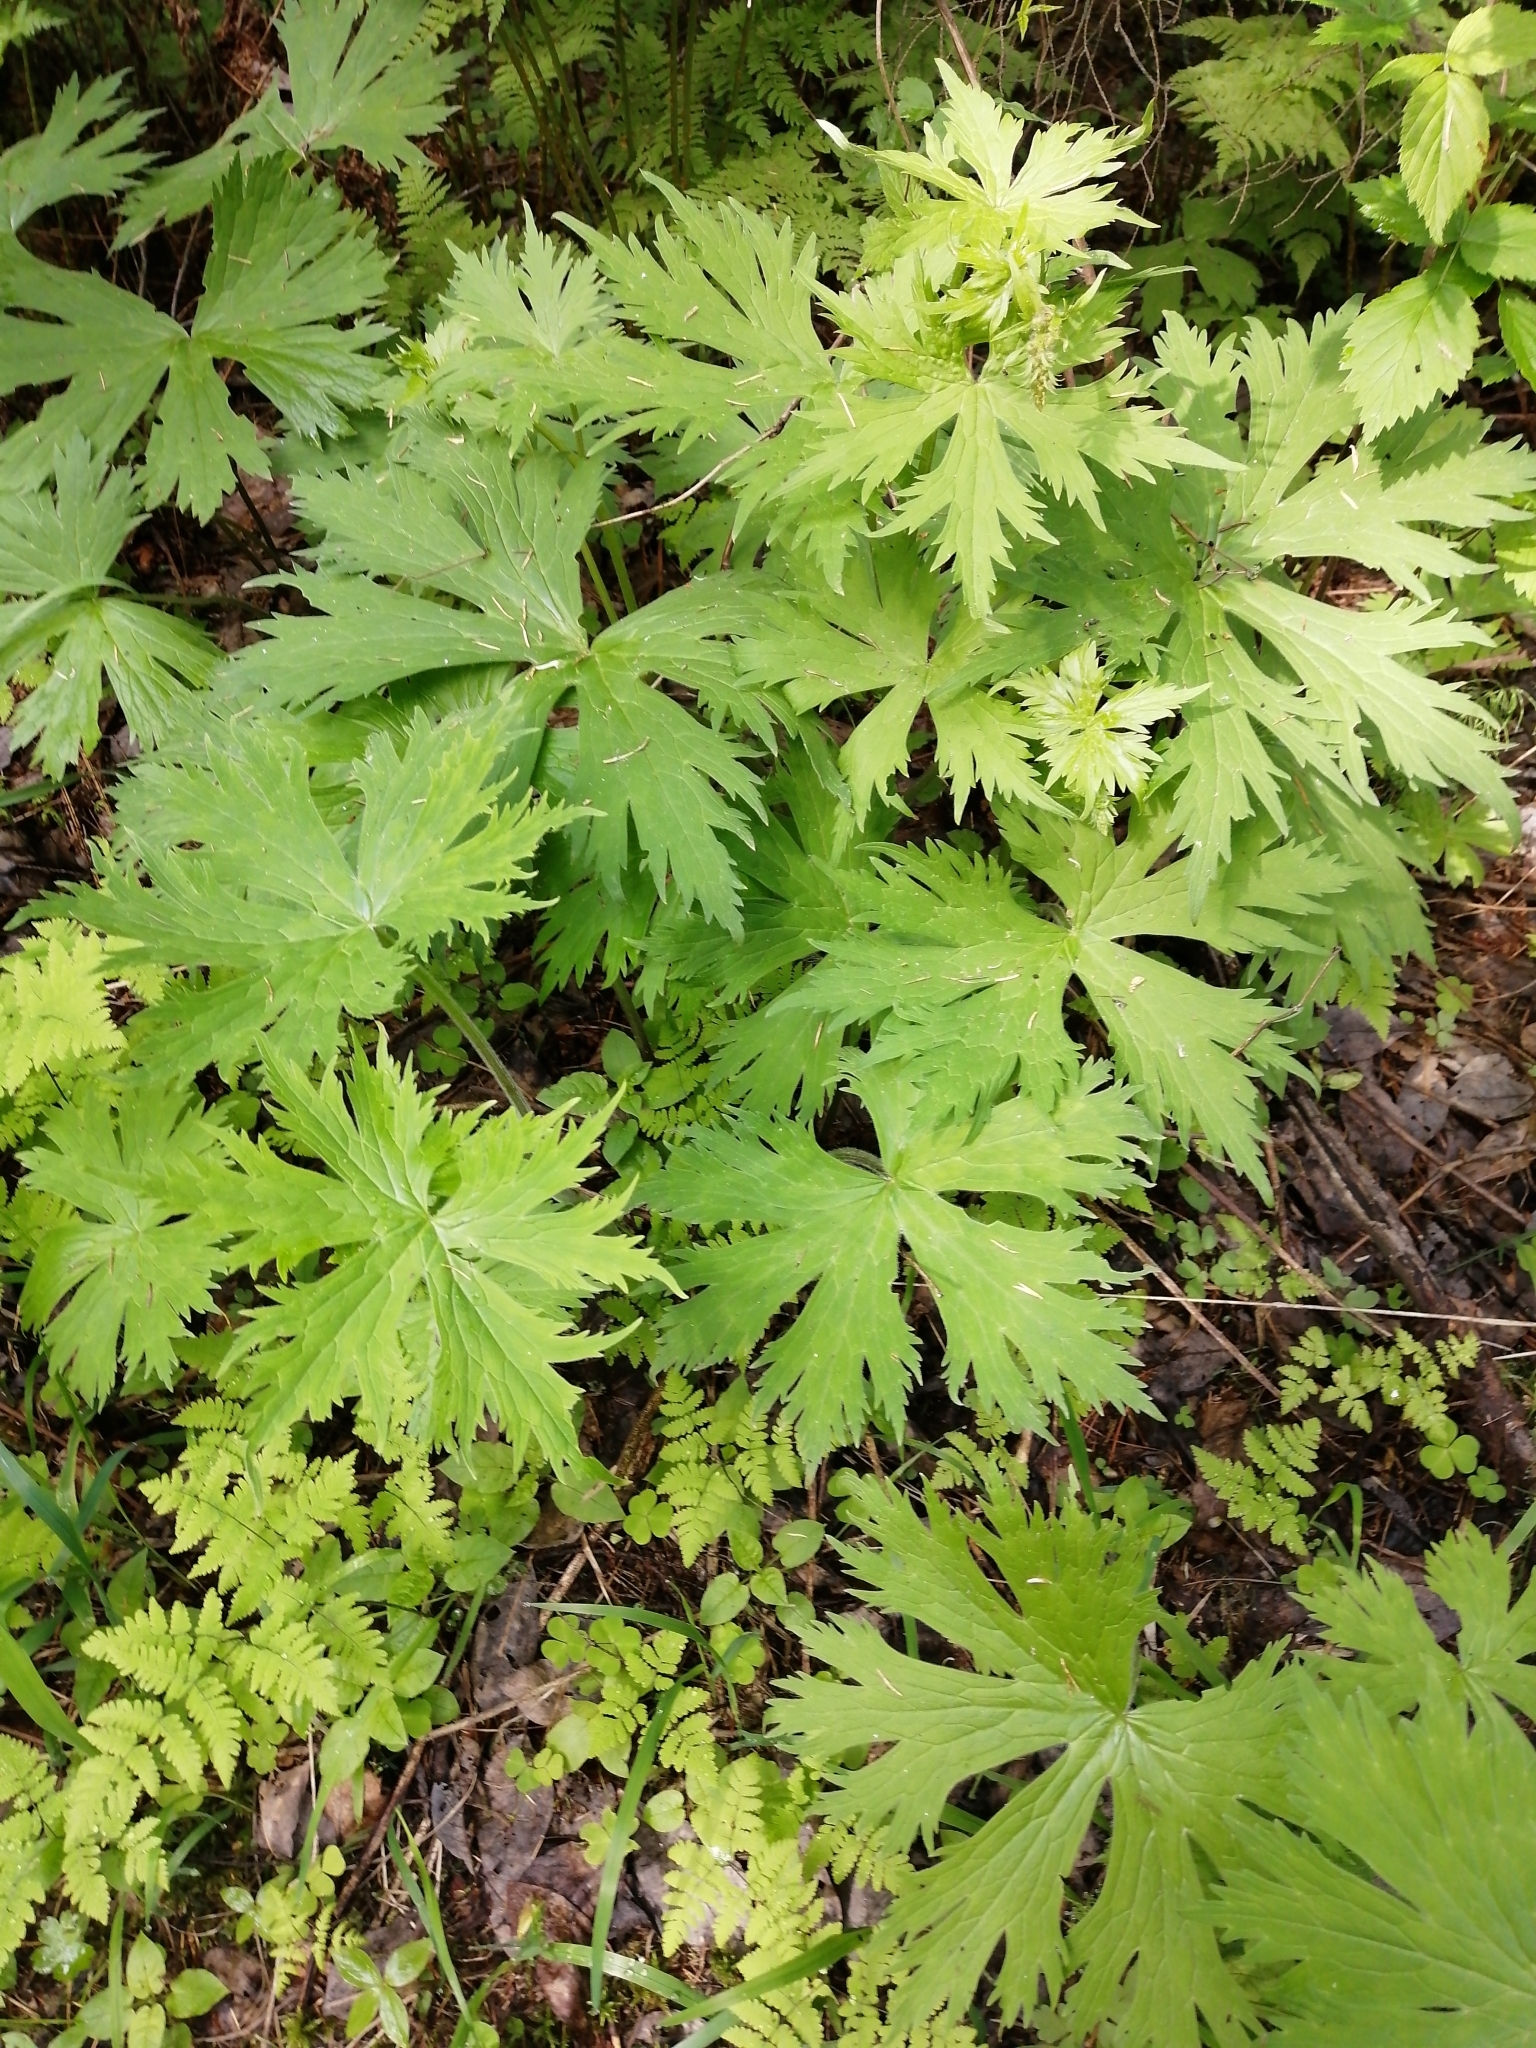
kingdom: Plantae
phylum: Tracheophyta
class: Magnoliopsida
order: Ranunculales
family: Ranunculaceae
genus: Aconitum
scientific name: Aconitum septentrionale
